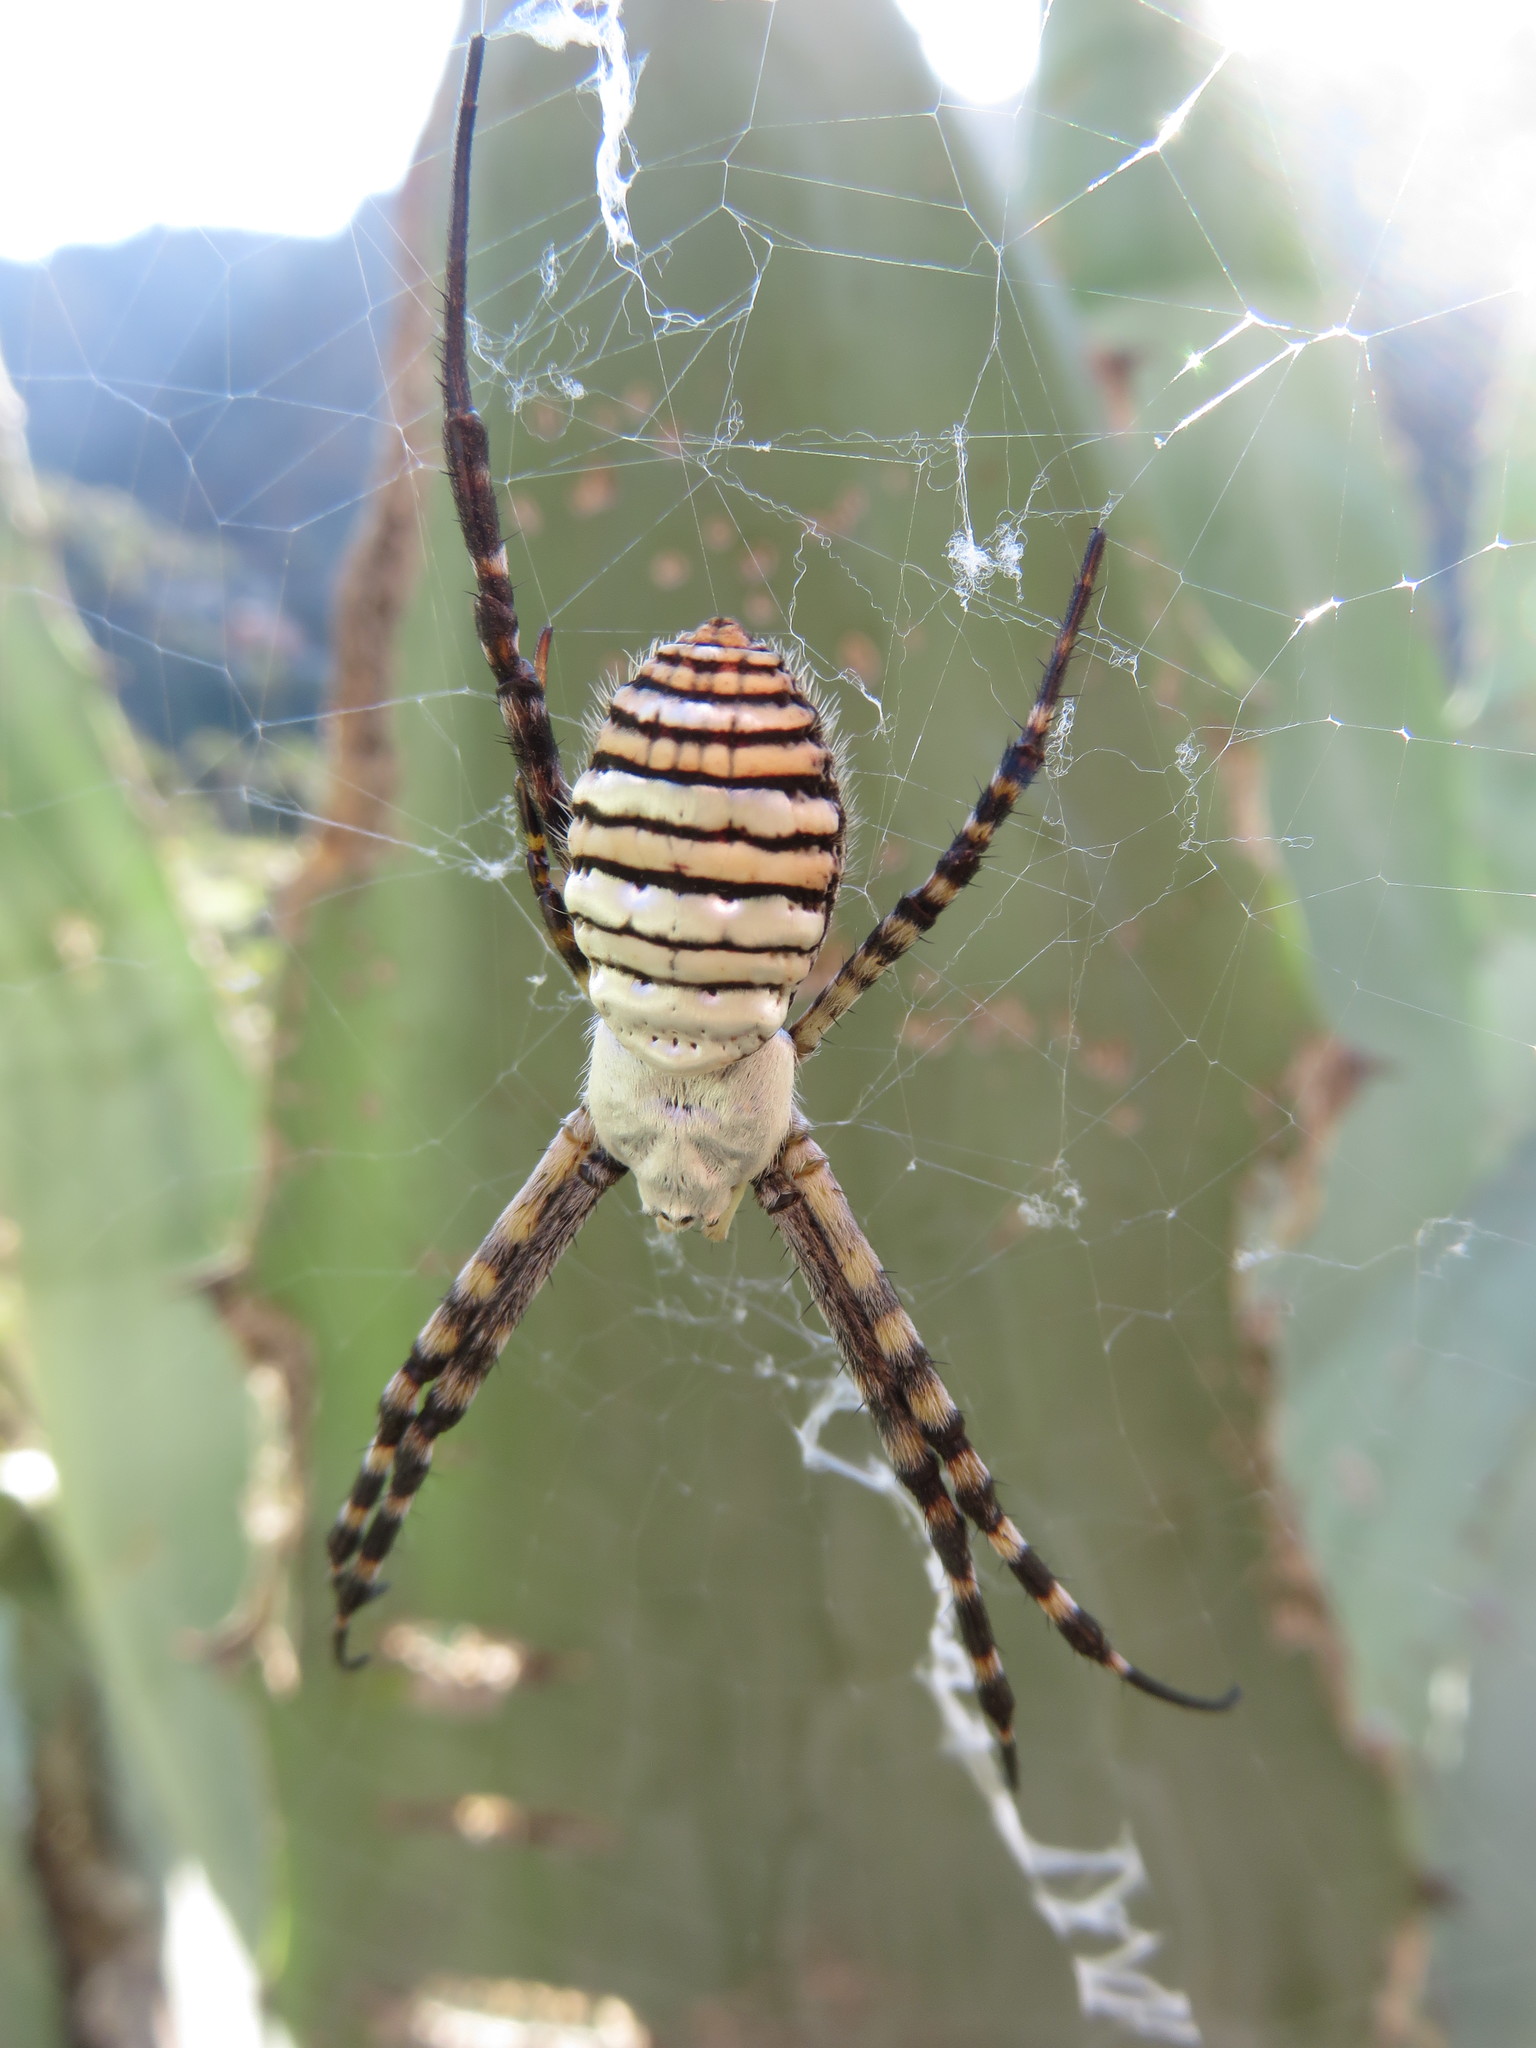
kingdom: Animalia
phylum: Arthropoda
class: Arachnida
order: Araneae
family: Araneidae
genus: Argiope
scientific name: Argiope trifasciata
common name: Banded garden spider
